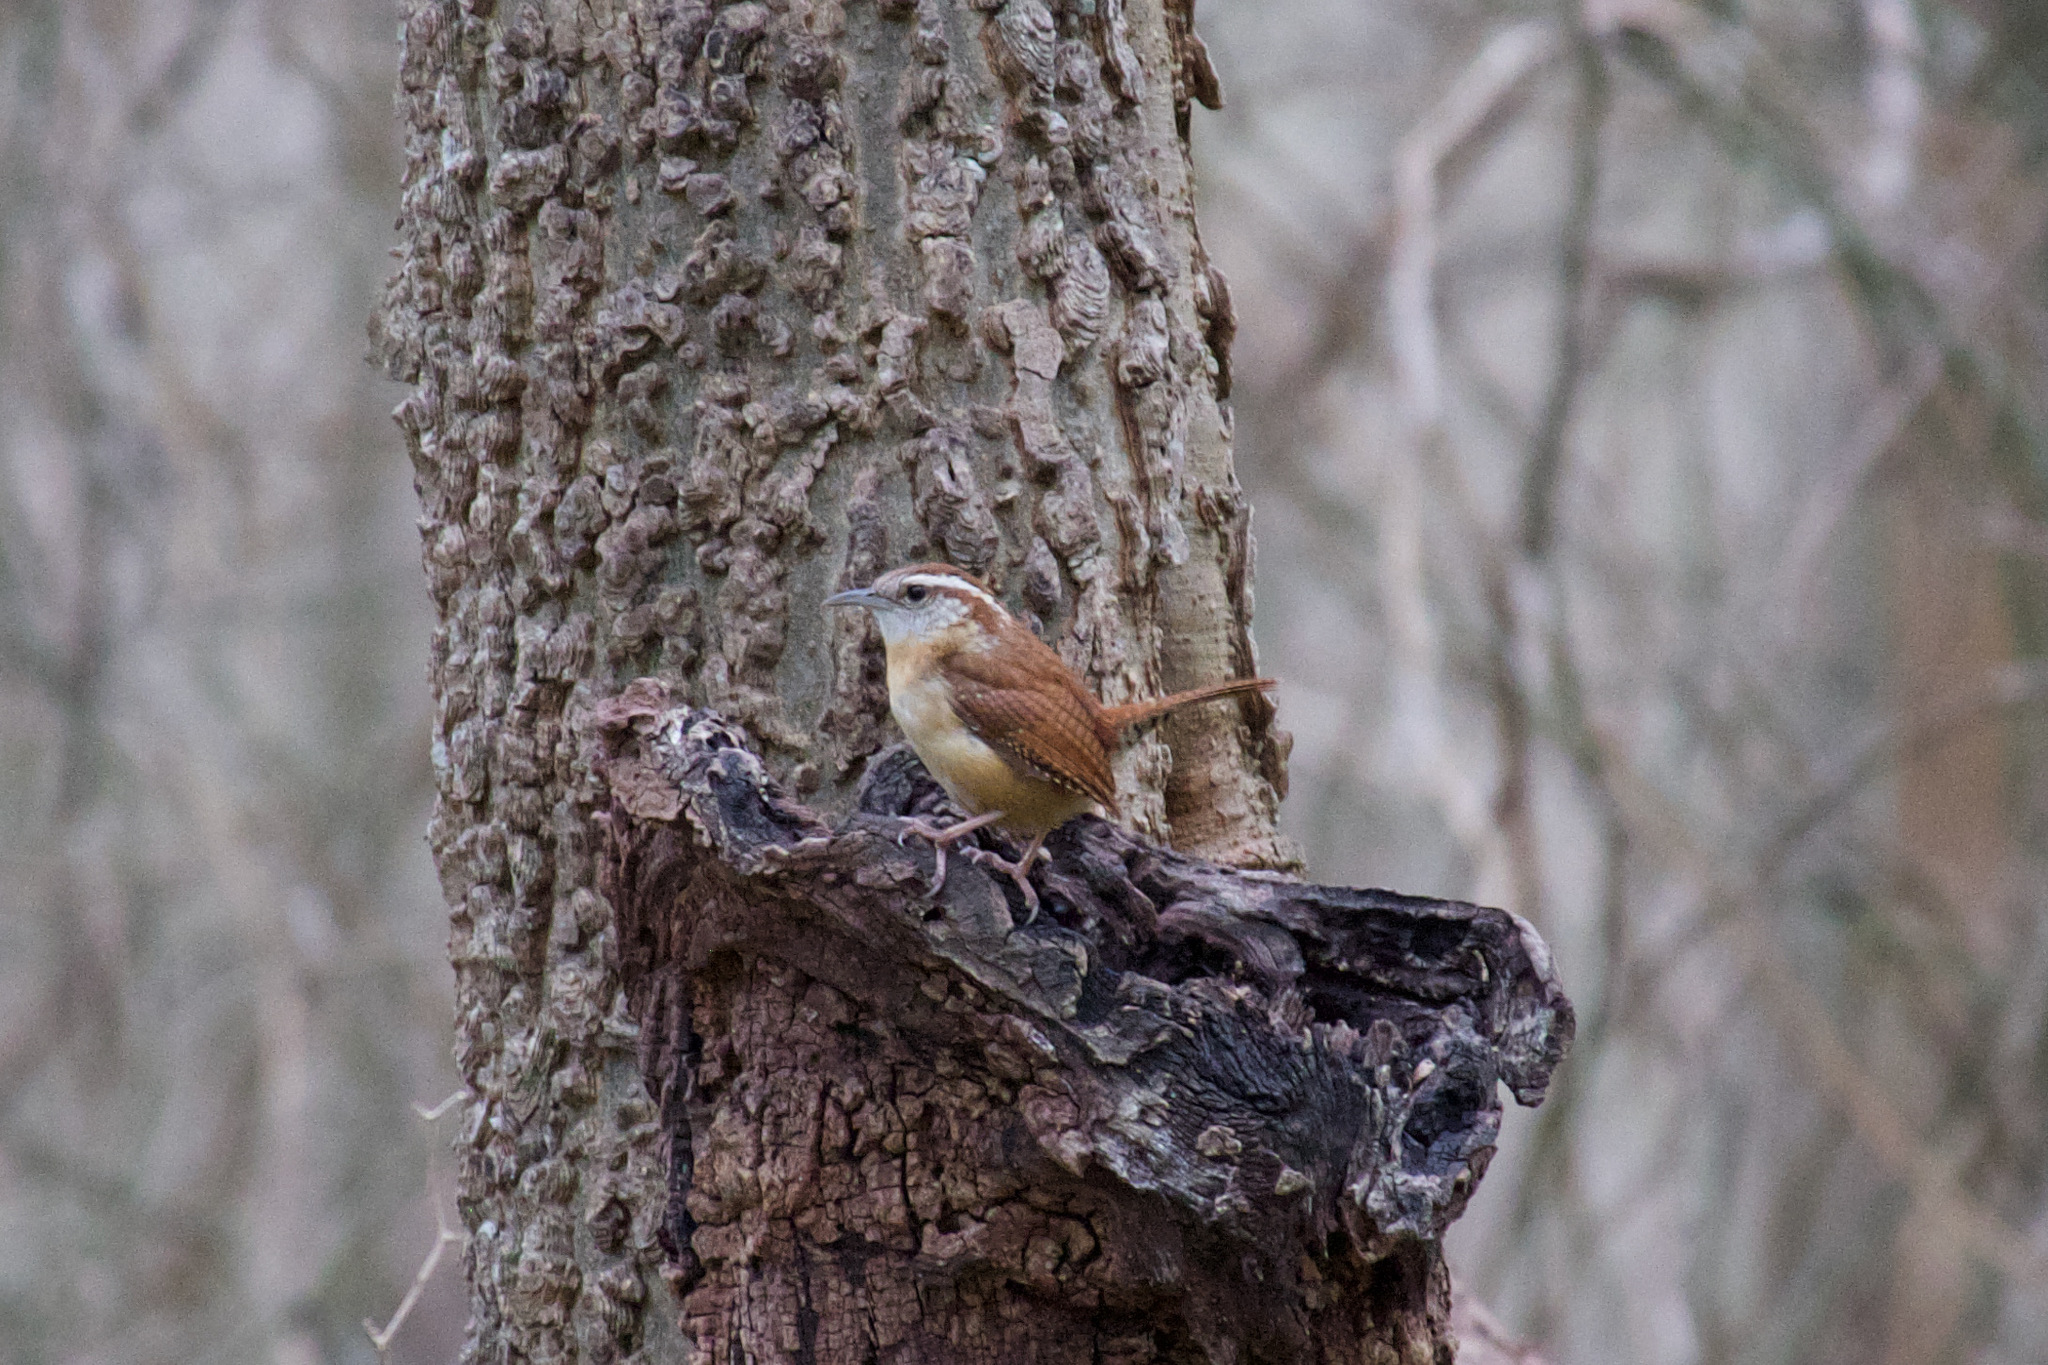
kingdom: Animalia
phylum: Chordata
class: Aves
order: Passeriformes
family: Troglodytidae
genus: Thryothorus
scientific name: Thryothorus ludovicianus
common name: Carolina wren
